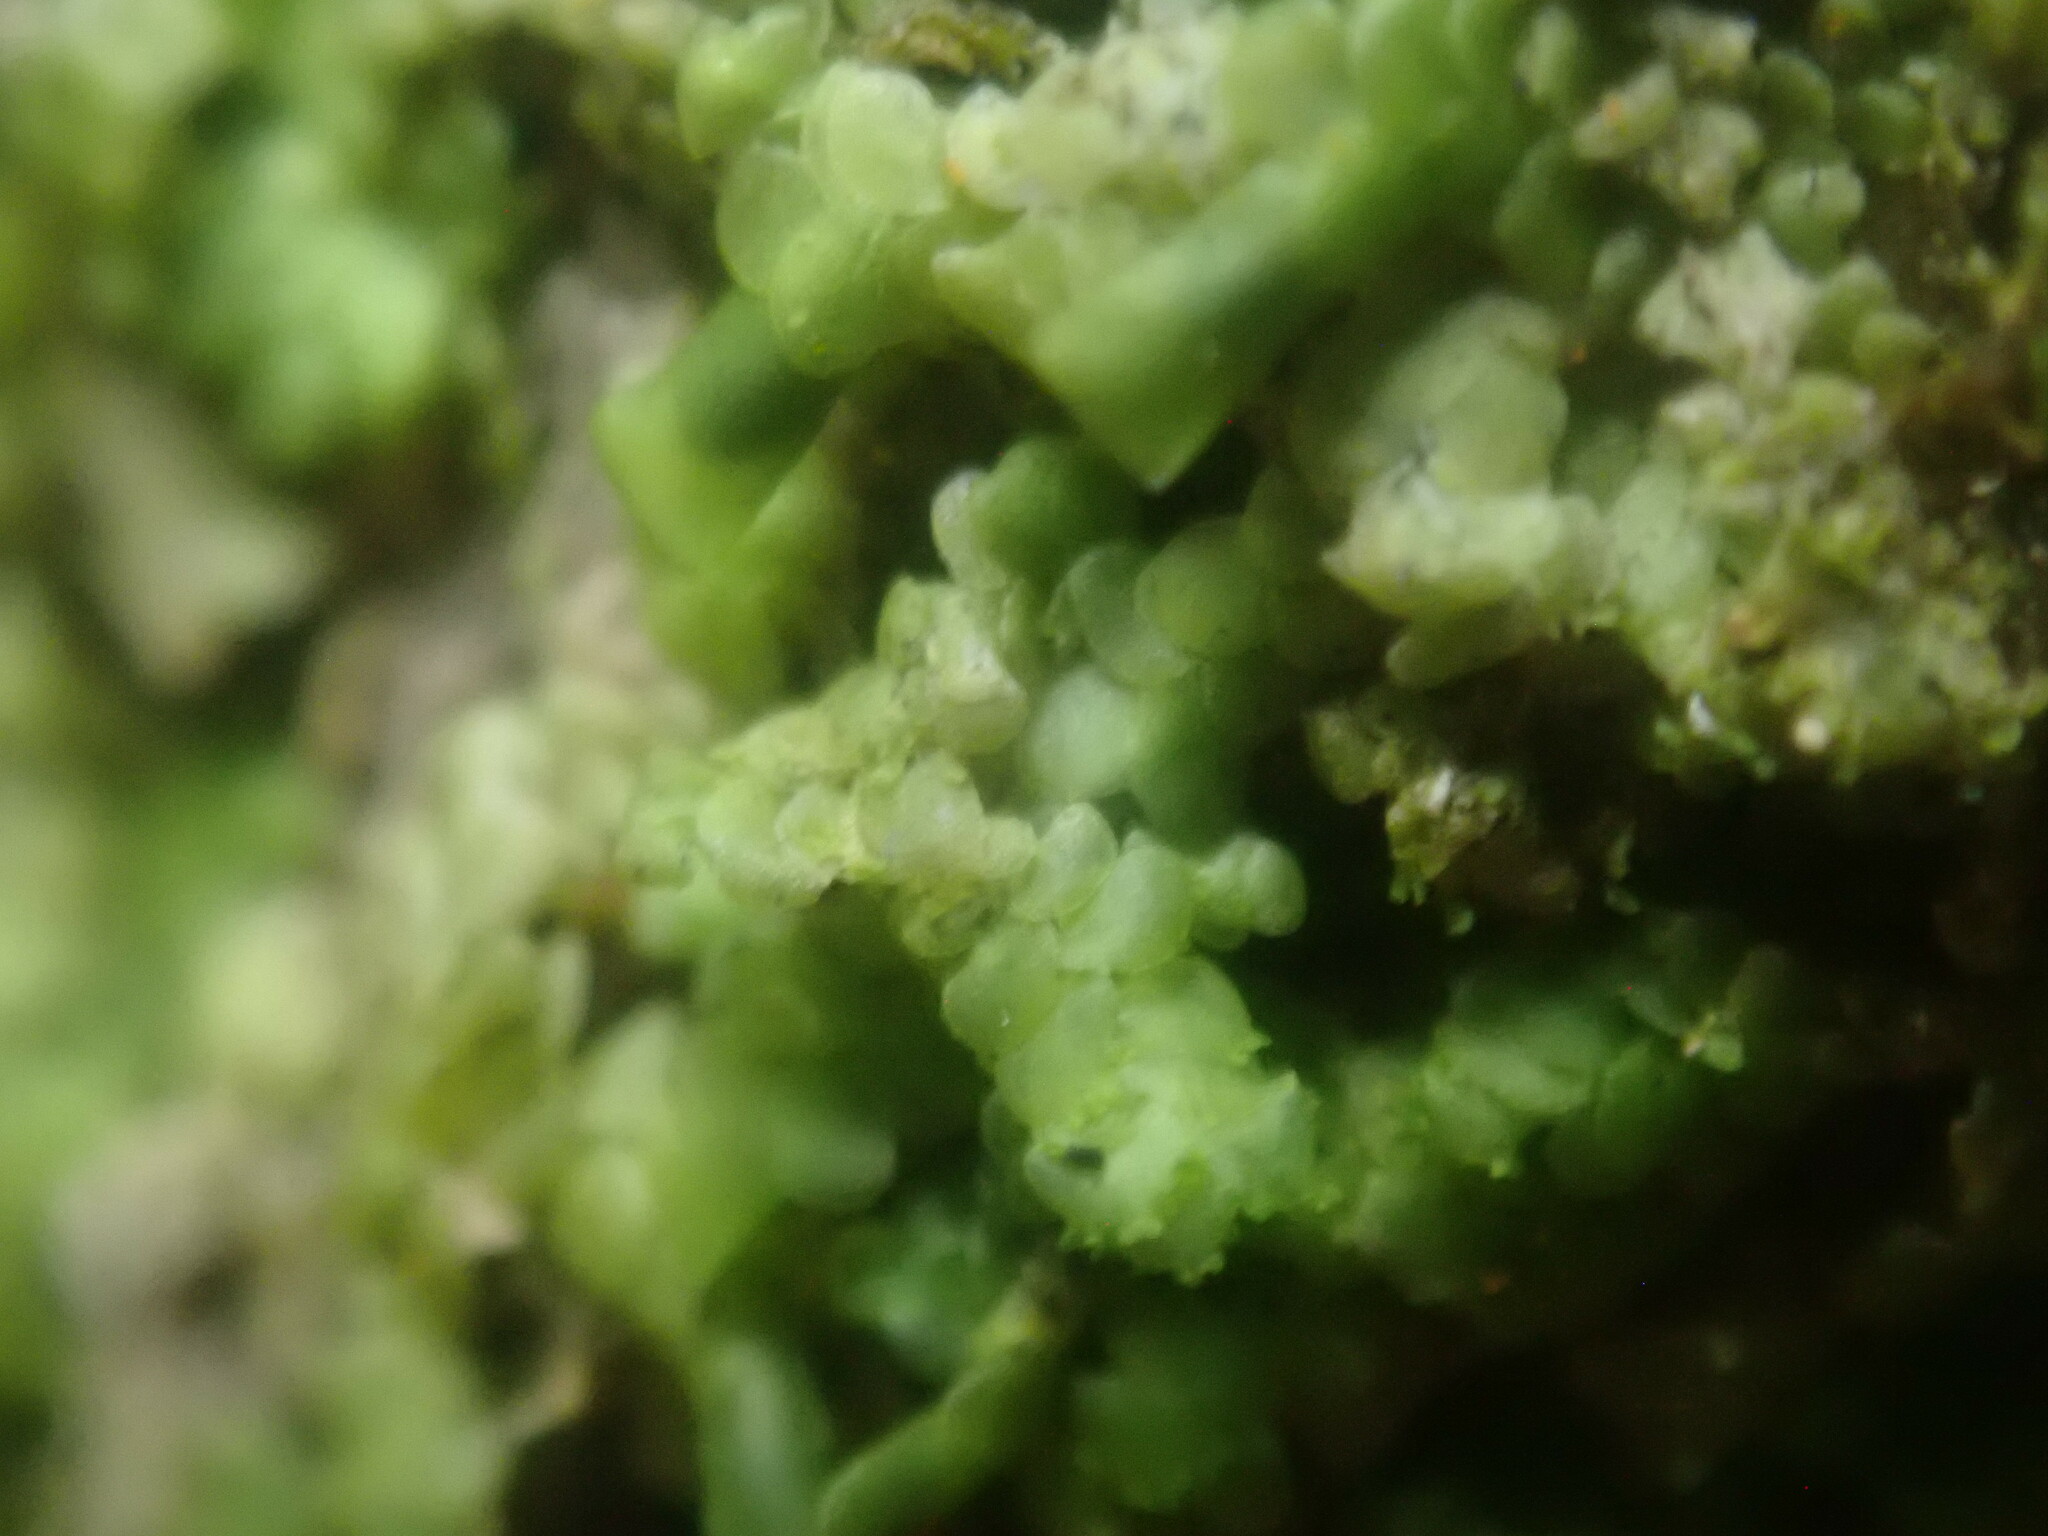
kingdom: Plantae
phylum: Marchantiophyta
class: Jungermanniopsida
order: Porellales
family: Radulaceae
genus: Radula
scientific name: Radula complanata
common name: Flat-leaved scalewort
